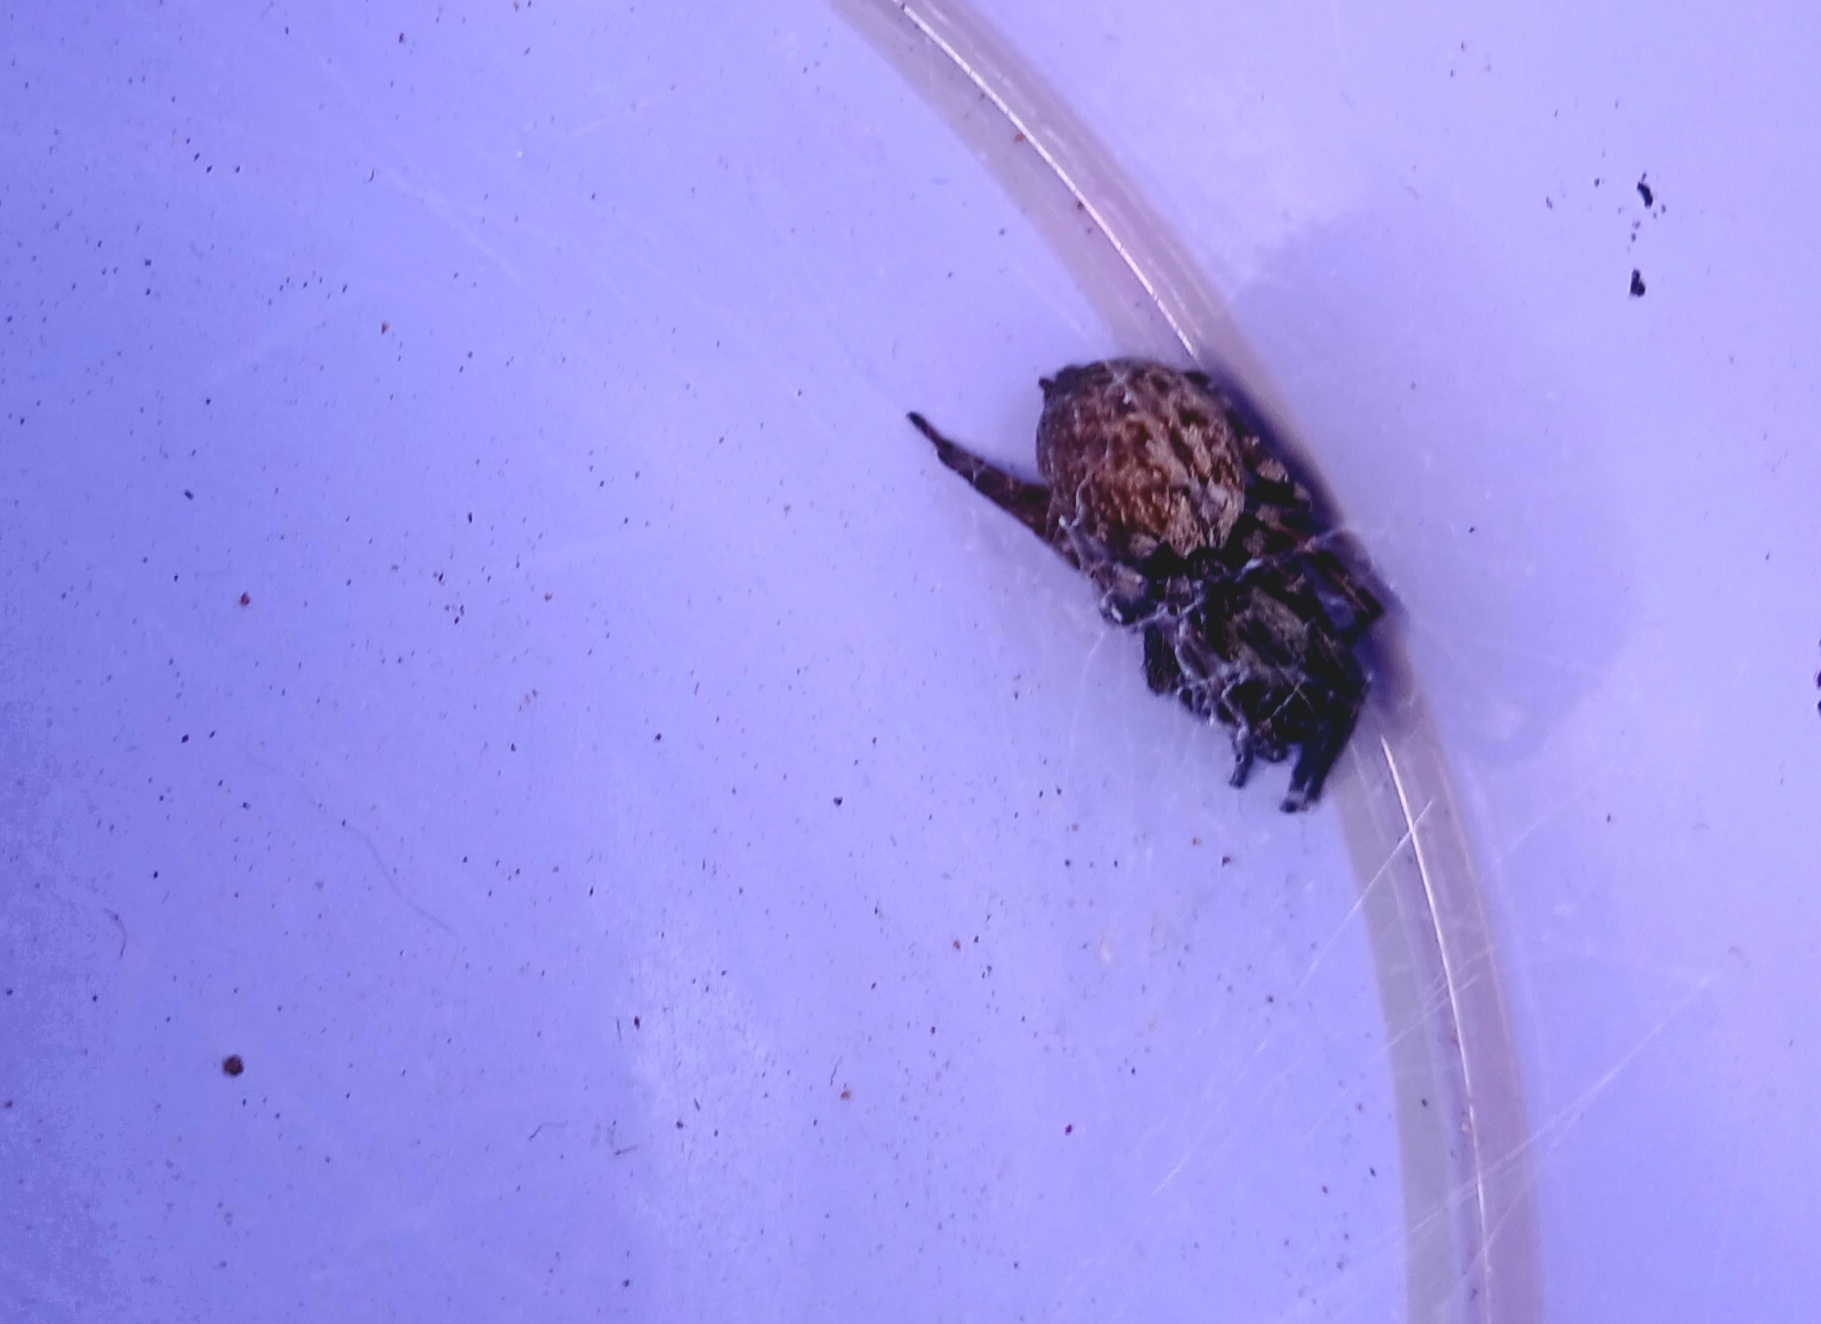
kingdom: Animalia
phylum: Arthropoda
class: Arachnida
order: Araneae
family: Desidae
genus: Badumna
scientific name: Badumna longinqua
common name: Gray house spider
